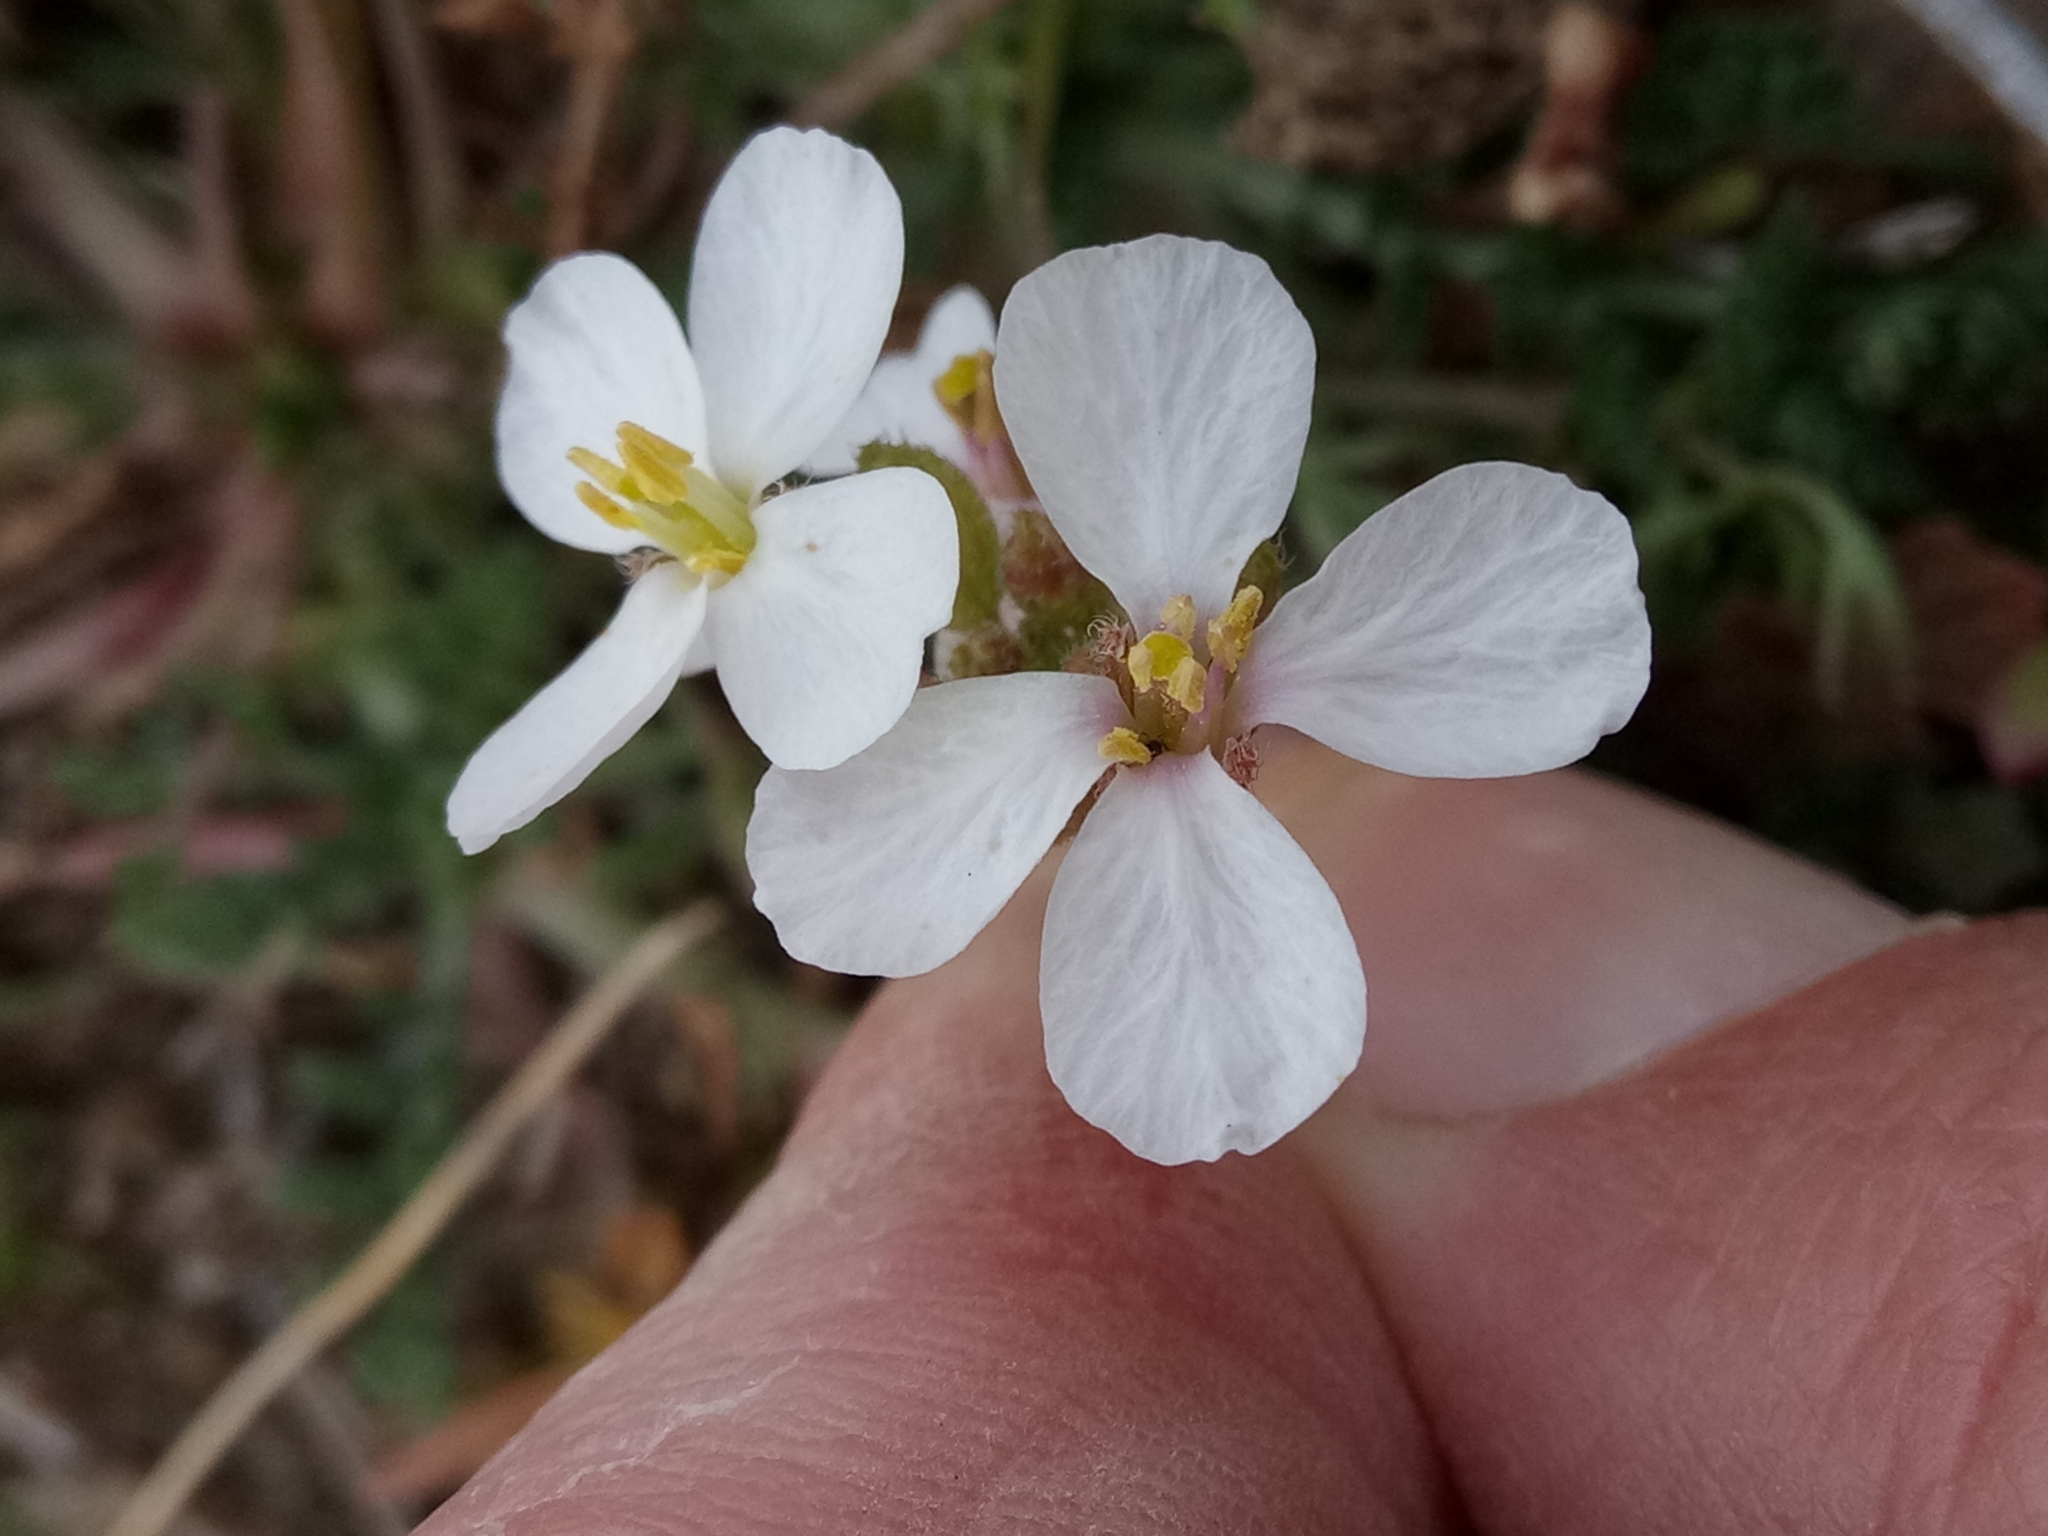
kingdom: Plantae
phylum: Tracheophyta
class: Magnoliopsida
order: Brassicales
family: Brassicaceae
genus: Diplotaxis
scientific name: Diplotaxis erucoides
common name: White rocket
